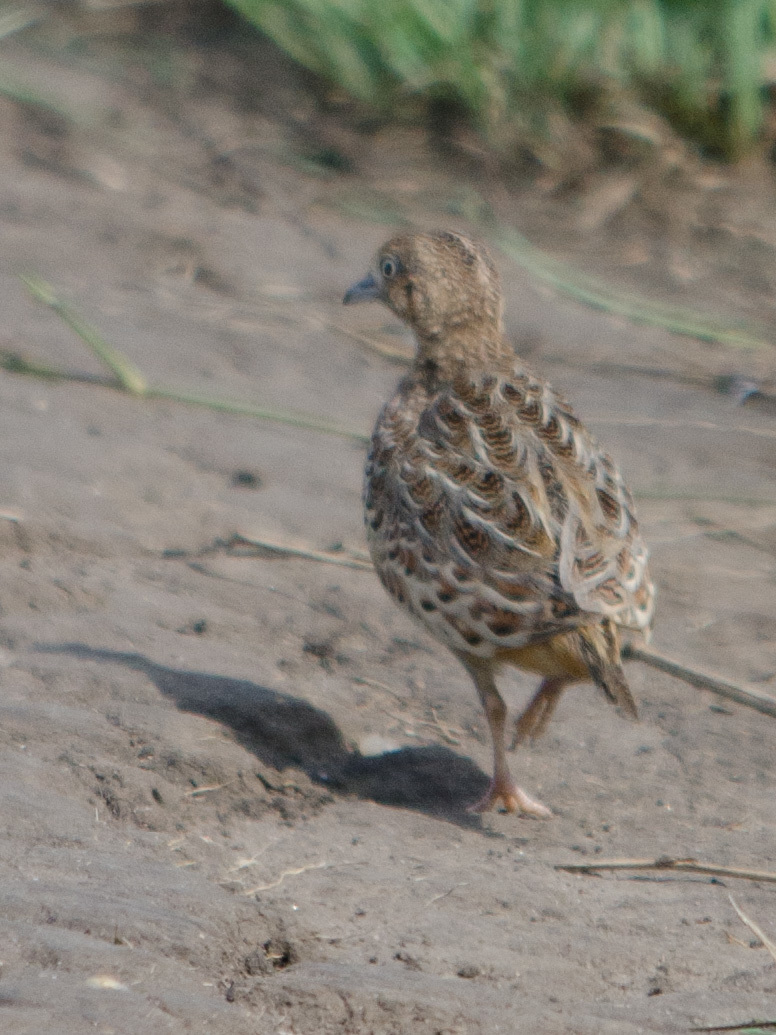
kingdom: Animalia
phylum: Chordata
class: Aves
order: Charadriiformes
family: Turnicidae
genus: Turnix
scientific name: Turnix sylvaticus
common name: Common buttonquail
